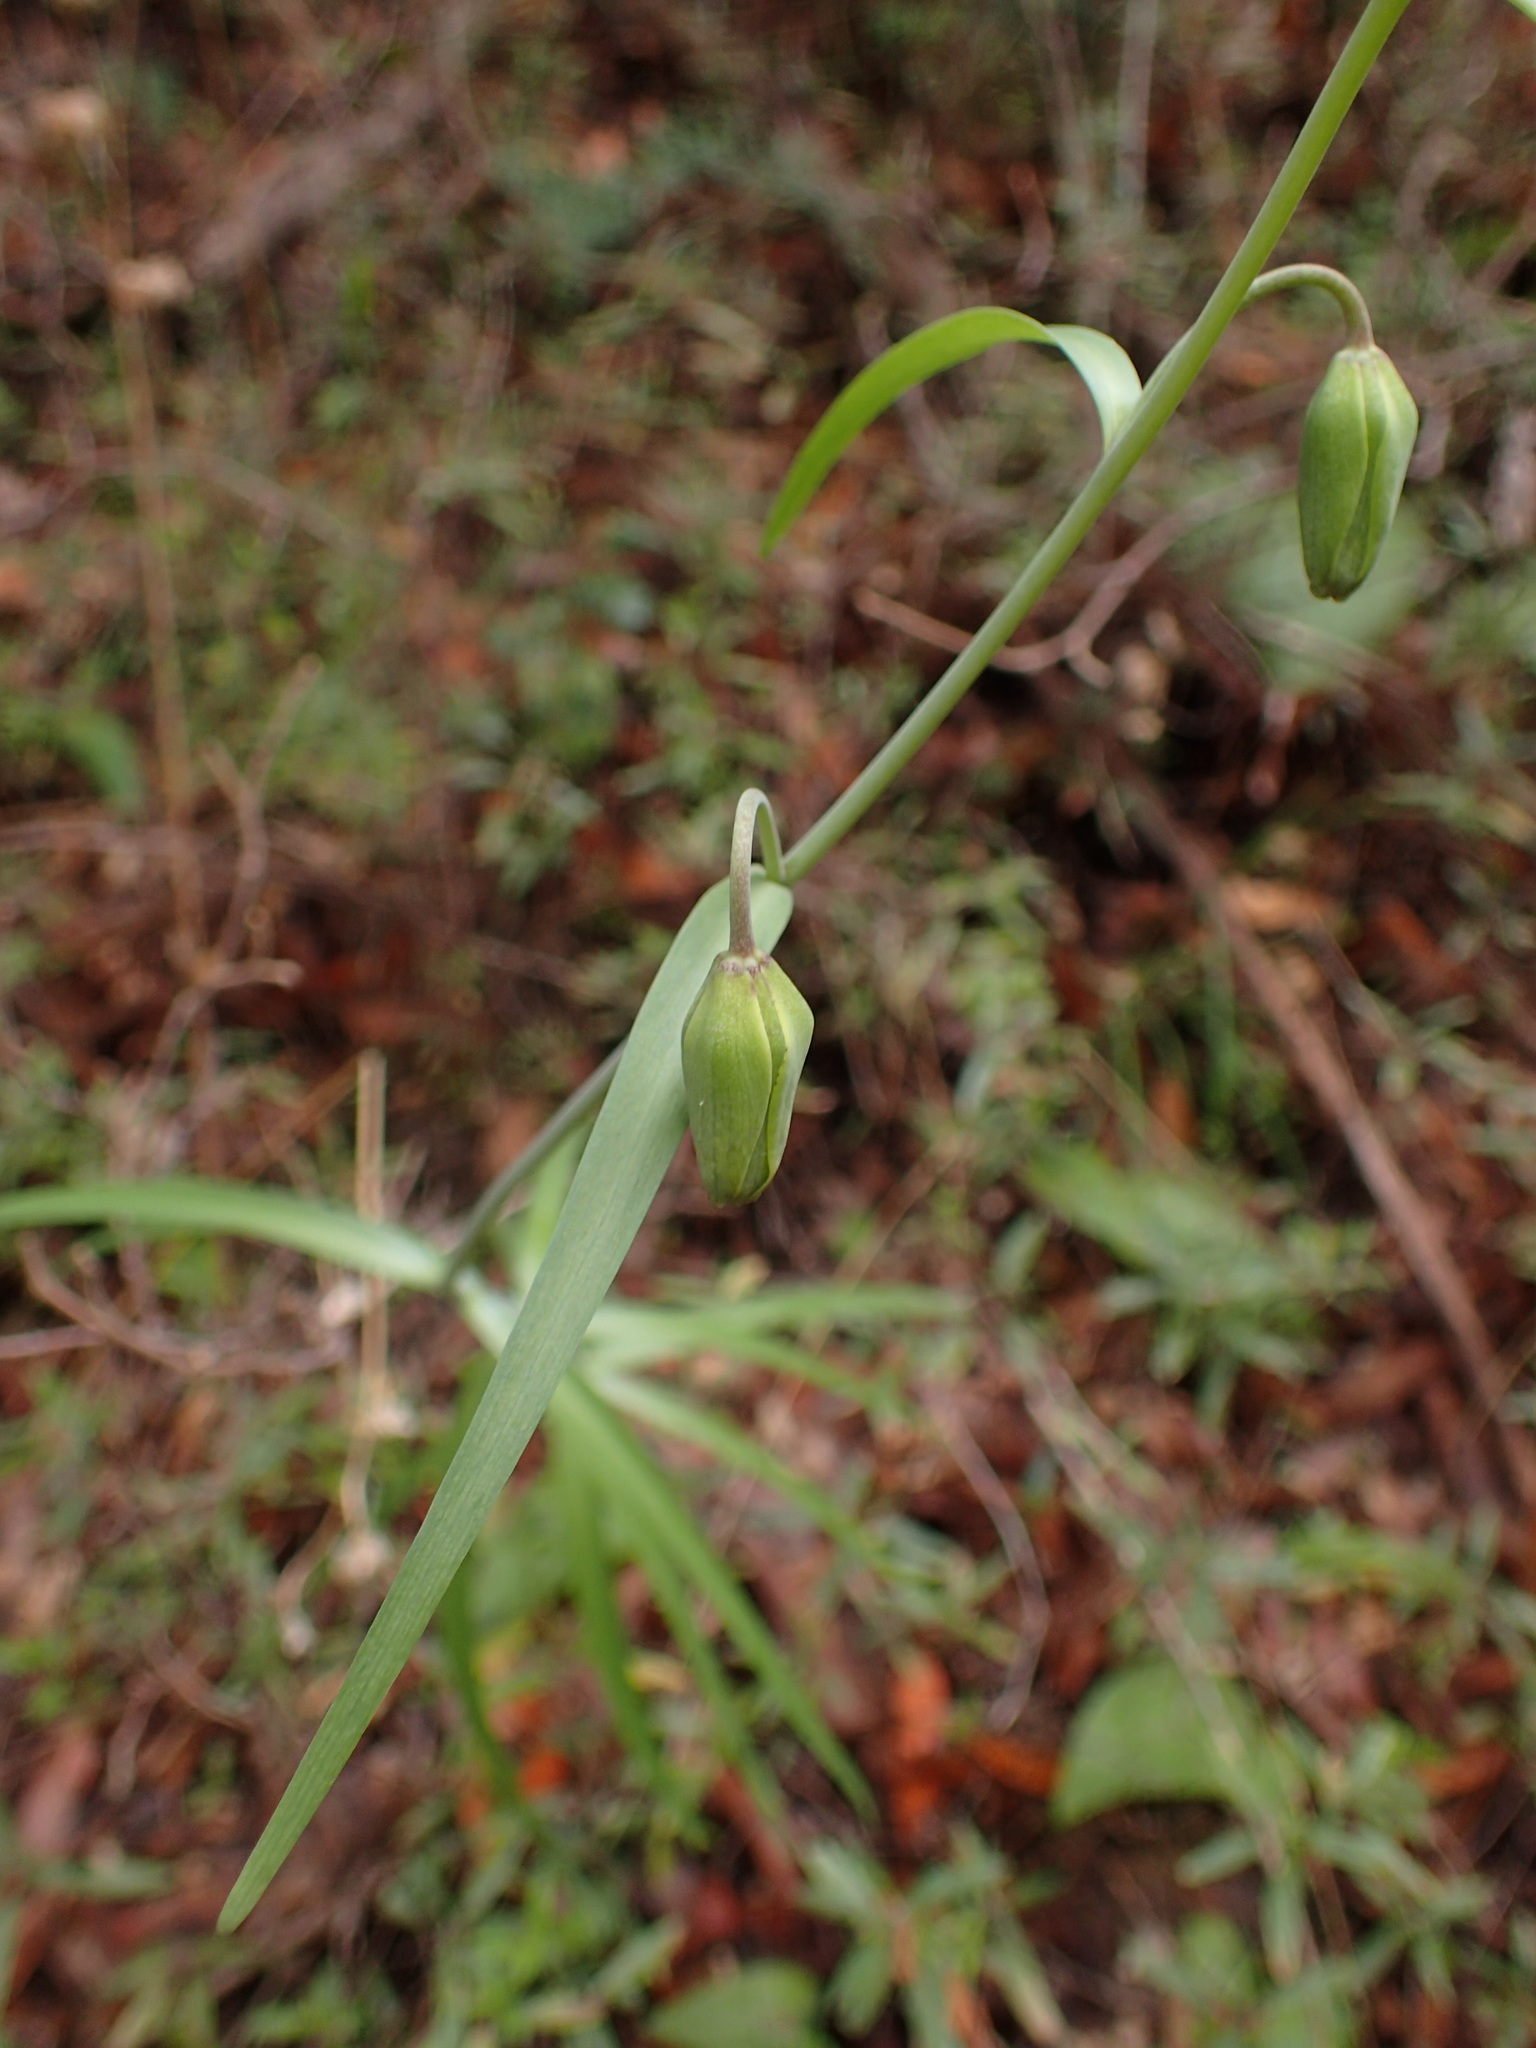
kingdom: Plantae
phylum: Tracheophyta
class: Liliopsida
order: Liliales
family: Liliaceae
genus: Fritillaria
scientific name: Fritillaria ojaiensis
